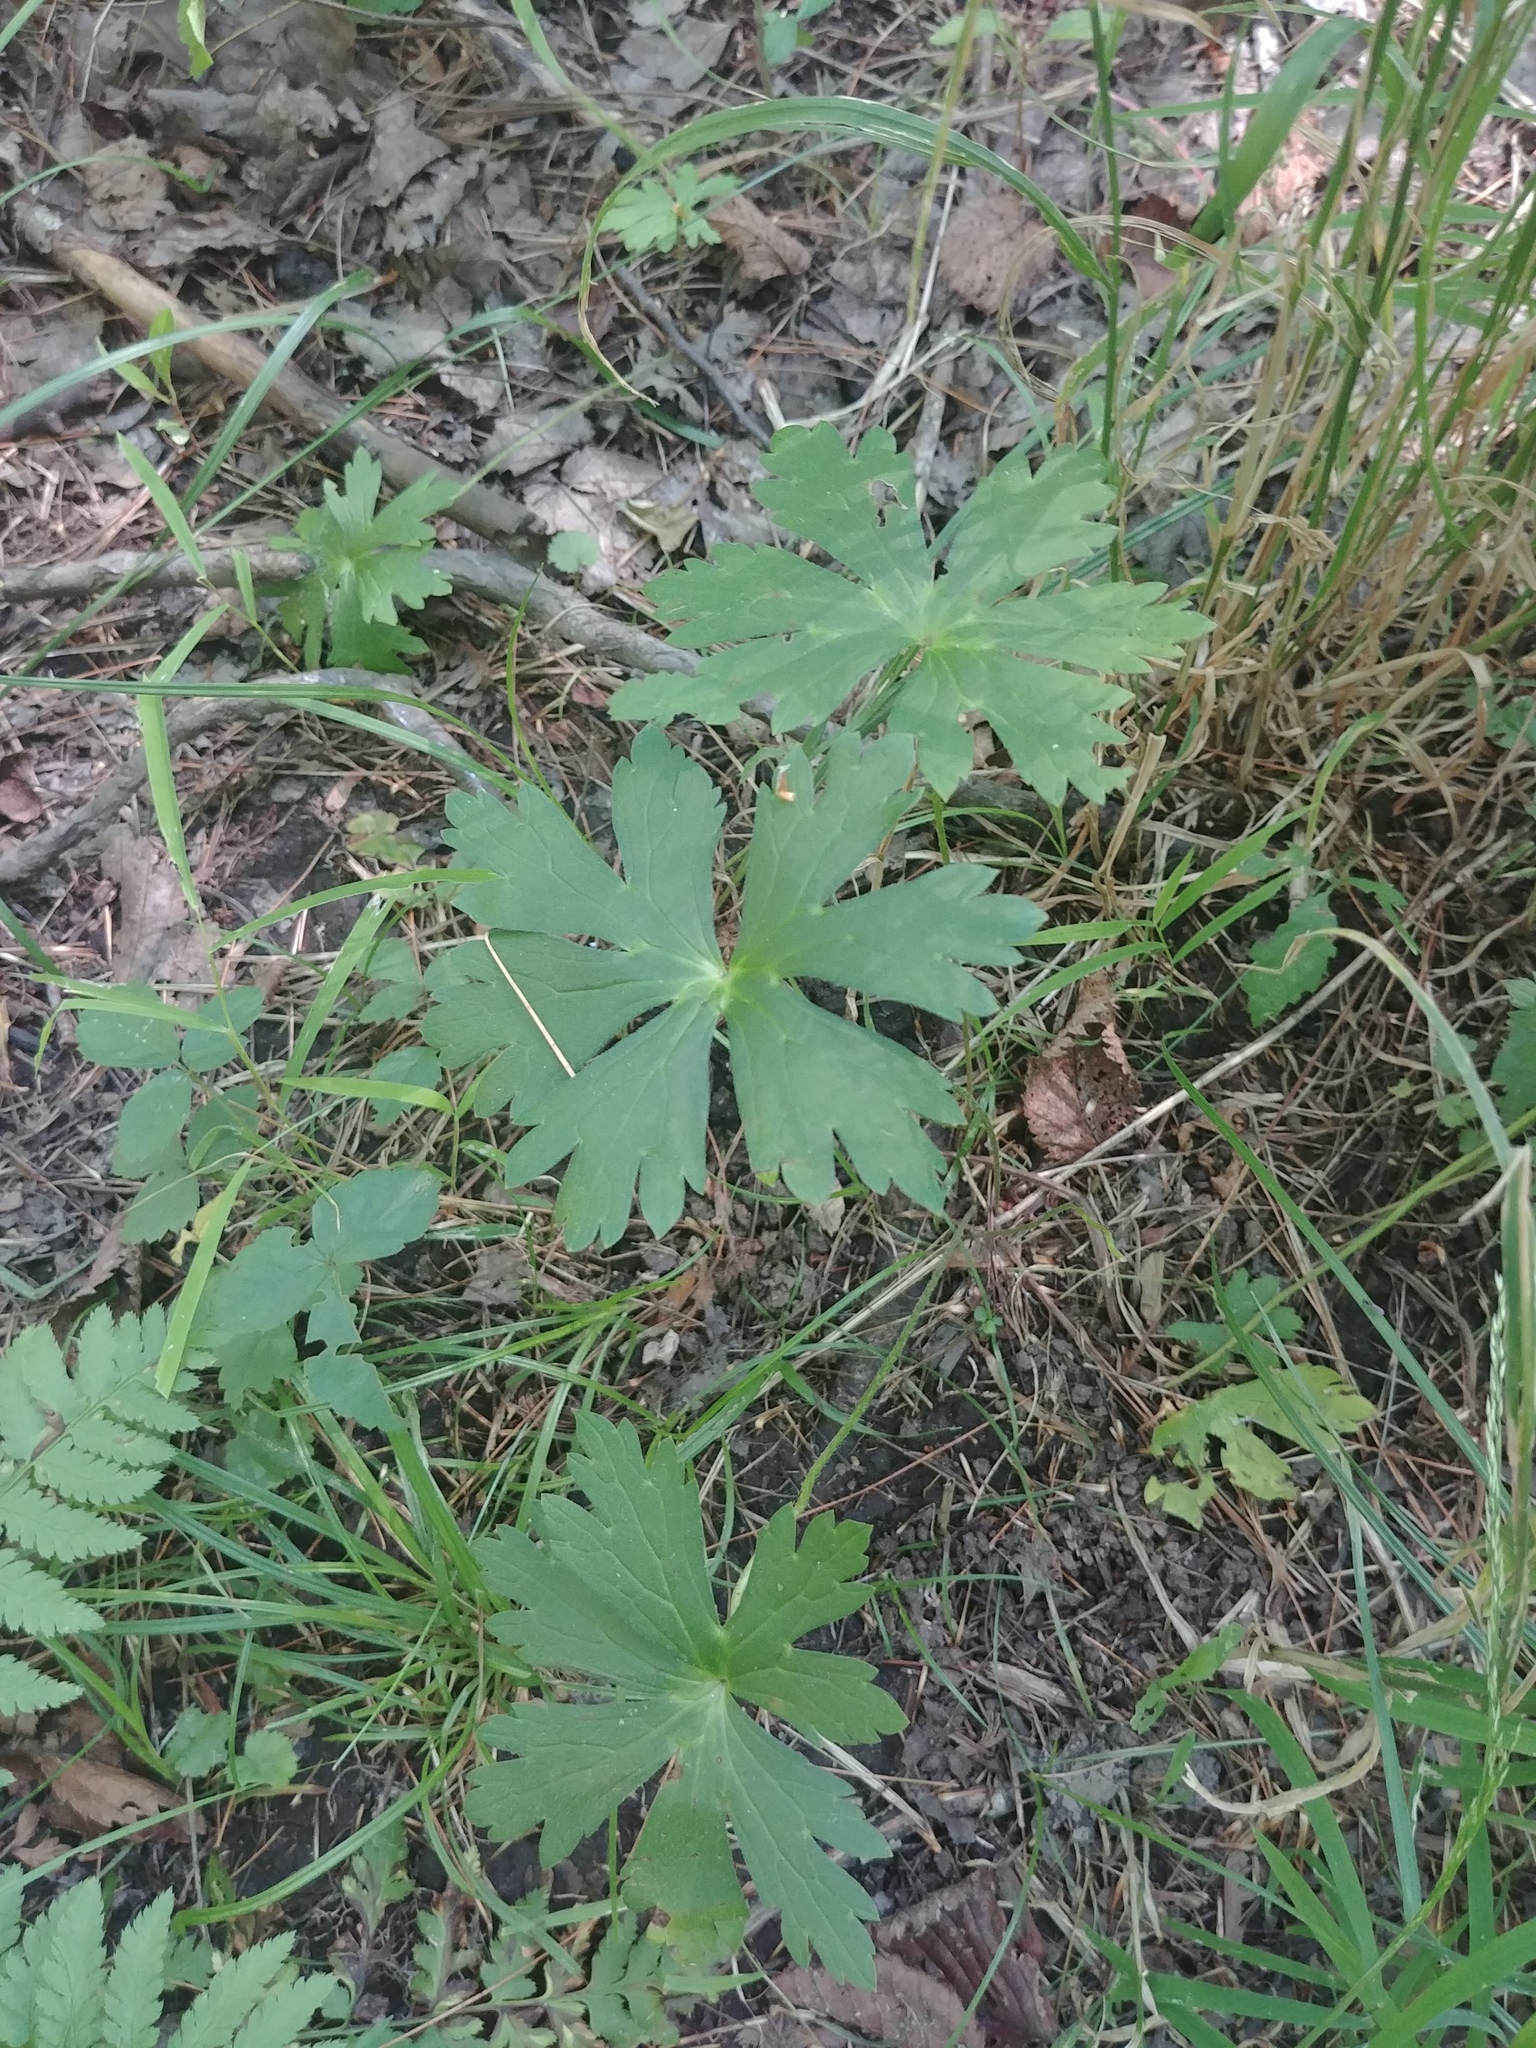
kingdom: Plantae
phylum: Tracheophyta
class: Magnoliopsida
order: Geraniales
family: Geraniaceae
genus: Geranium
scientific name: Geranium maculatum
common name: Spotted geranium
